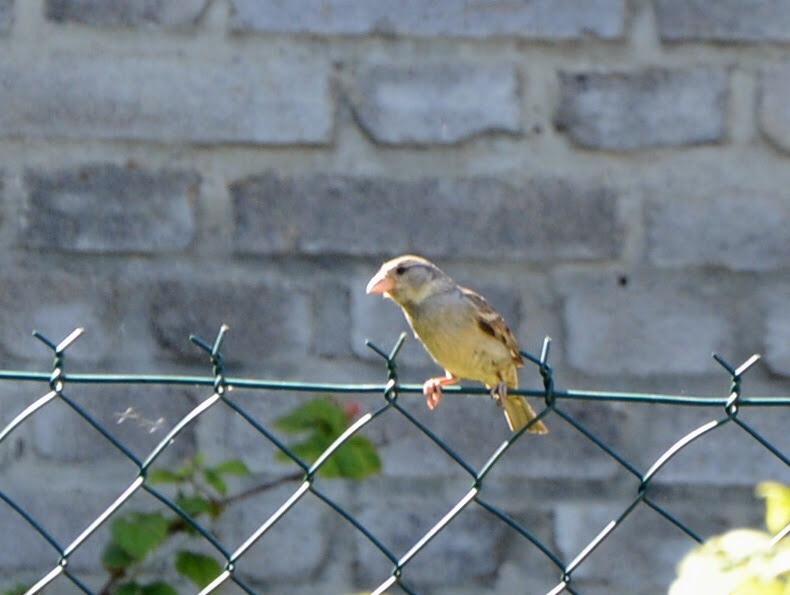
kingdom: Animalia
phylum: Chordata
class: Aves
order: Passeriformes
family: Passeridae
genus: Passer
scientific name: Passer domesticus
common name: House sparrow
